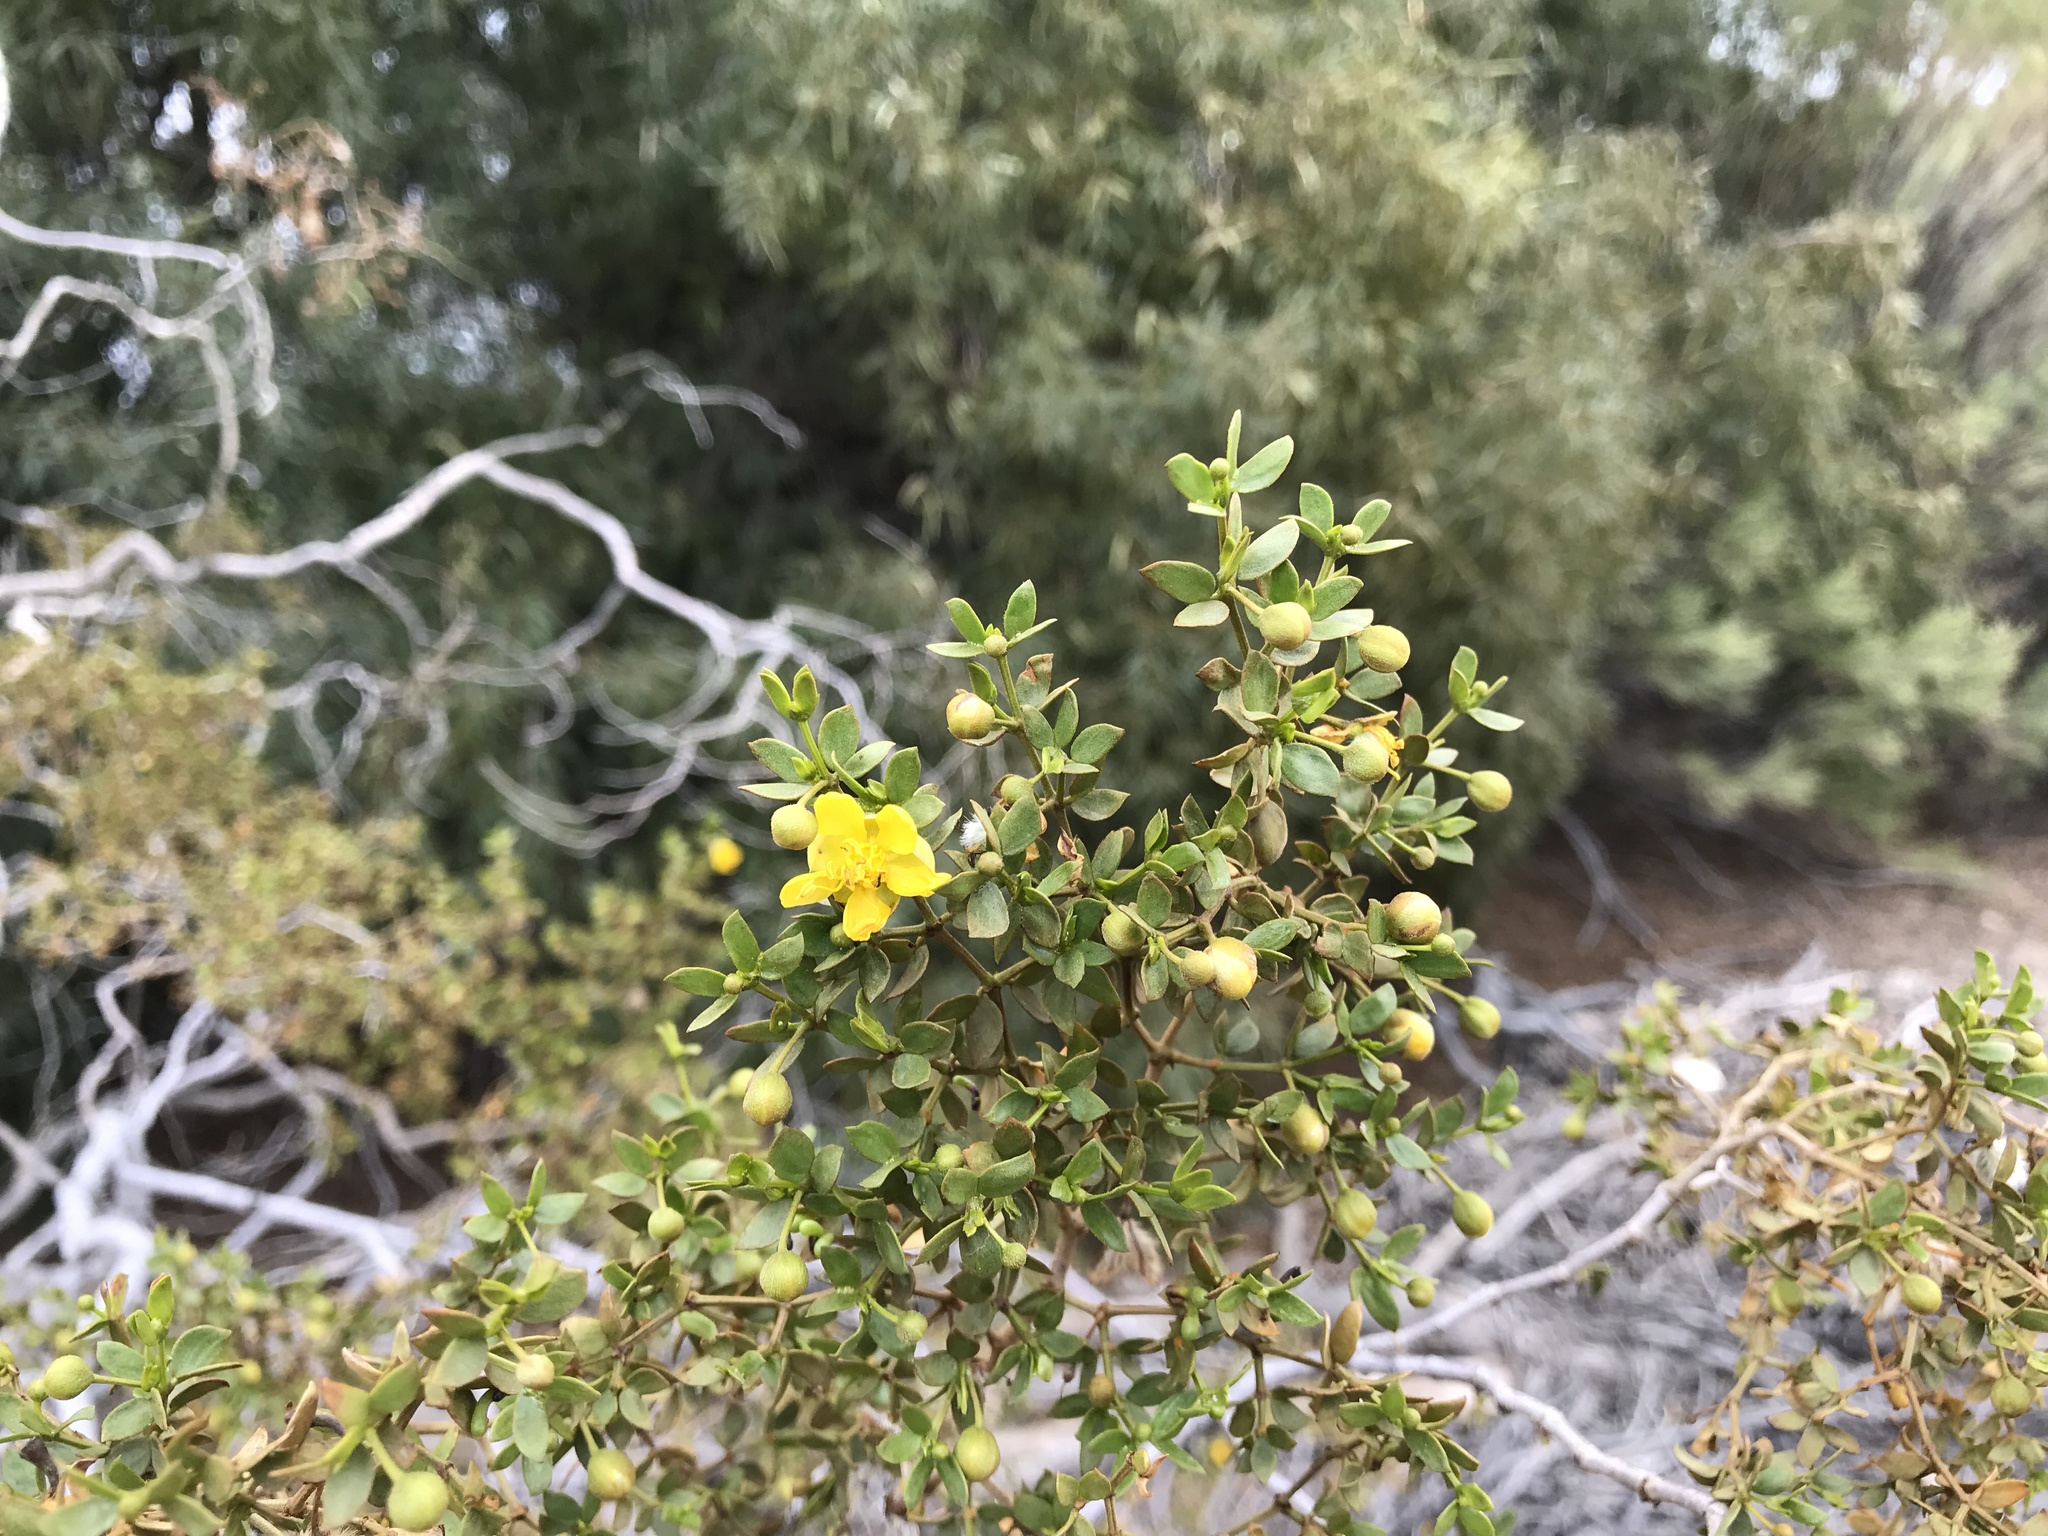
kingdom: Plantae
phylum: Tracheophyta
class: Magnoliopsida
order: Zygophyllales
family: Zygophyllaceae
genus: Larrea
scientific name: Larrea tridentata
